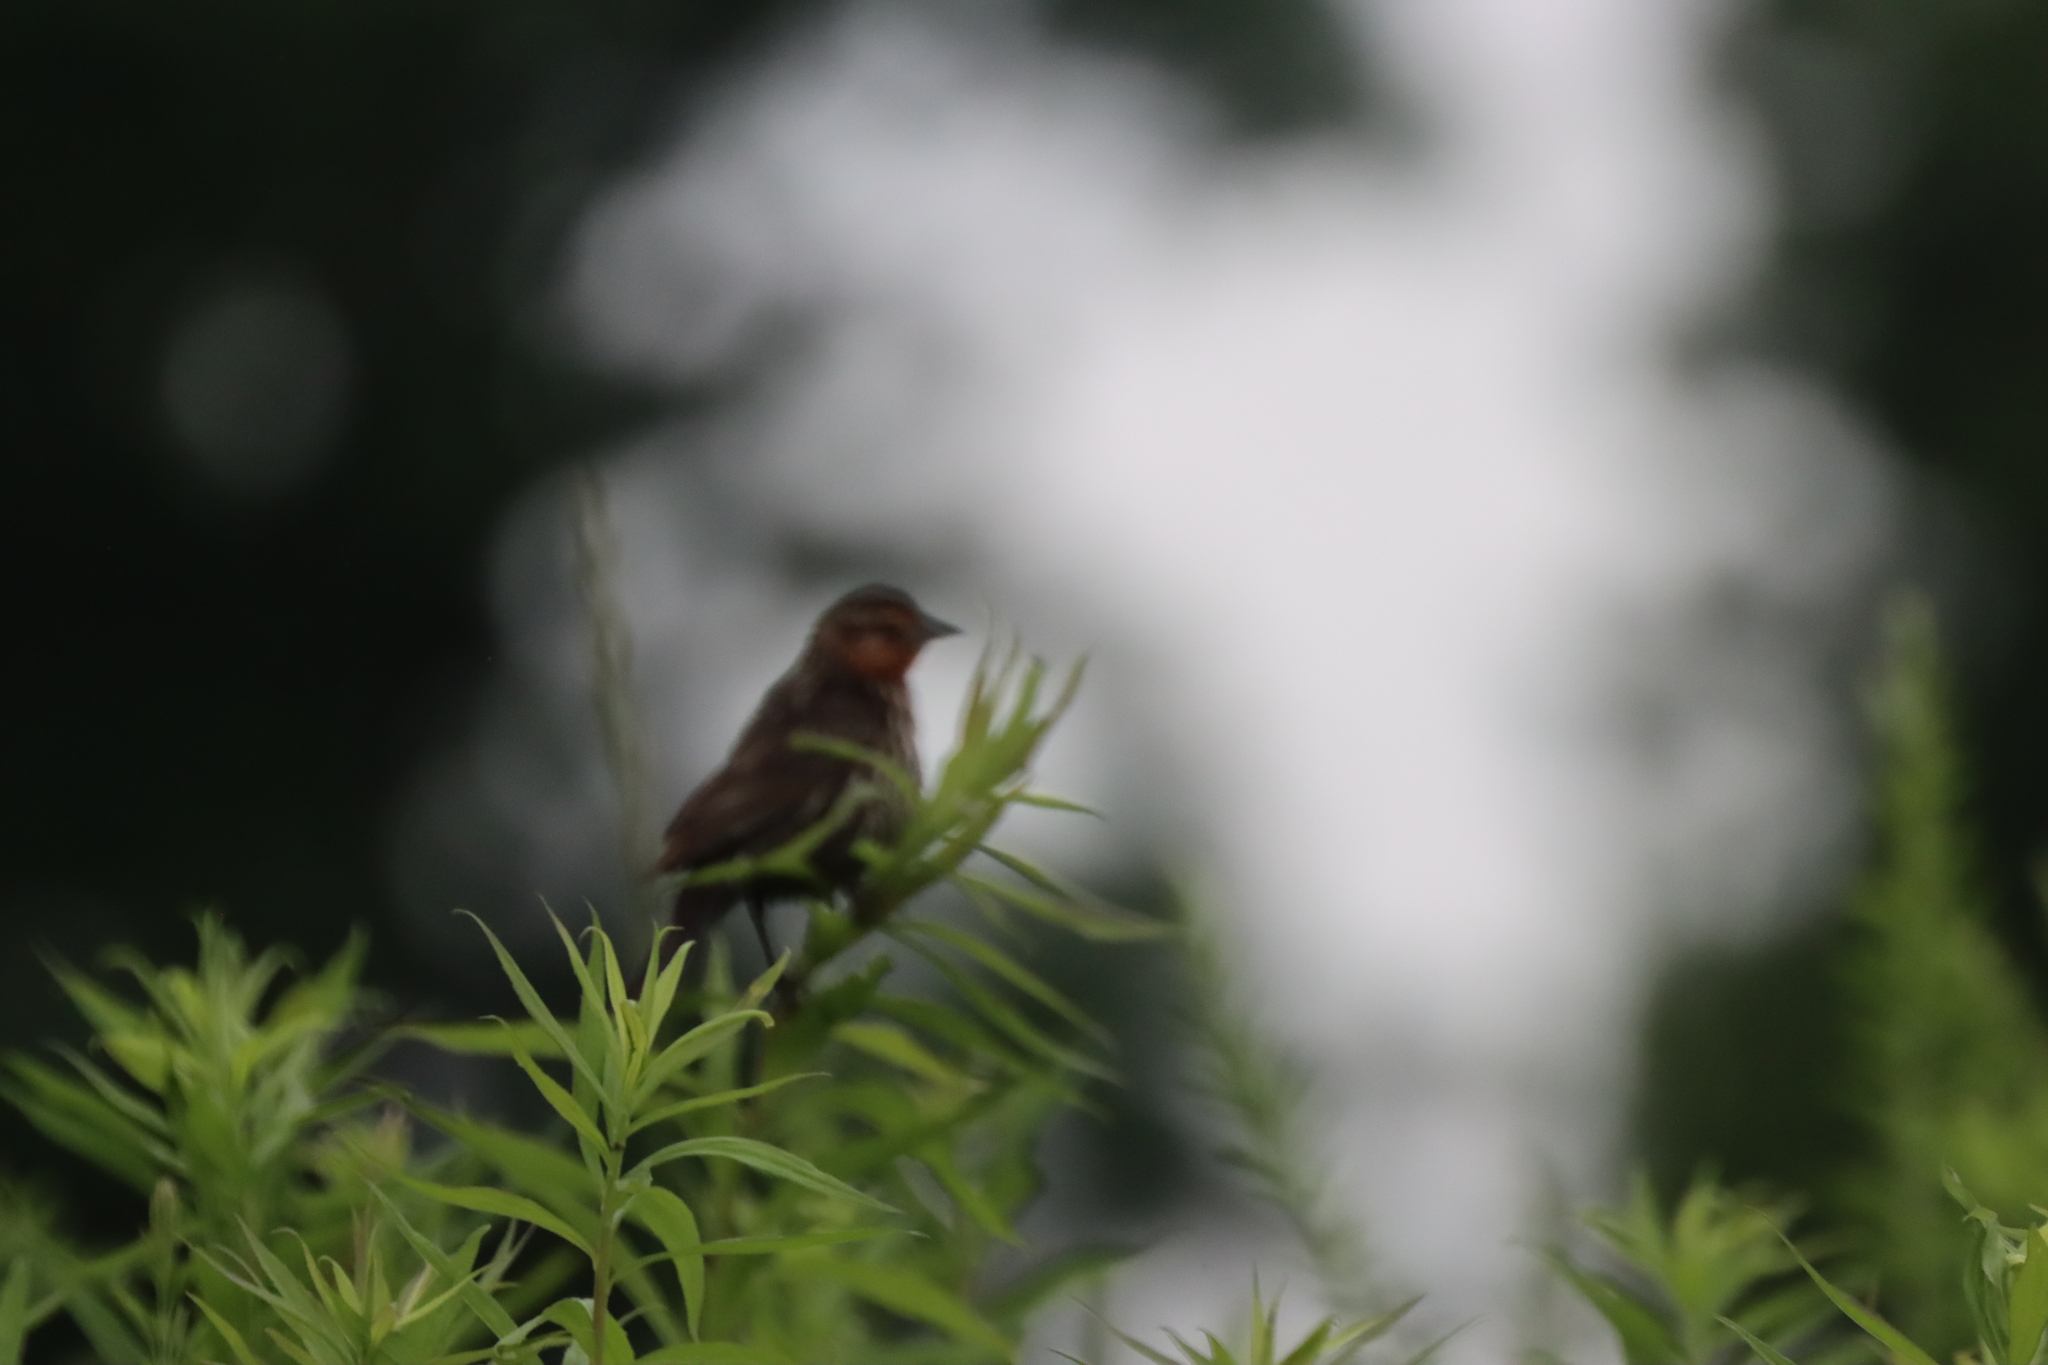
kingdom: Animalia
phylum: Chordata
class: Aves
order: Passeriformes
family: Icteridae
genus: Agelaius
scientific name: Agelaius phoeniceus
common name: Red-winged blackbird
